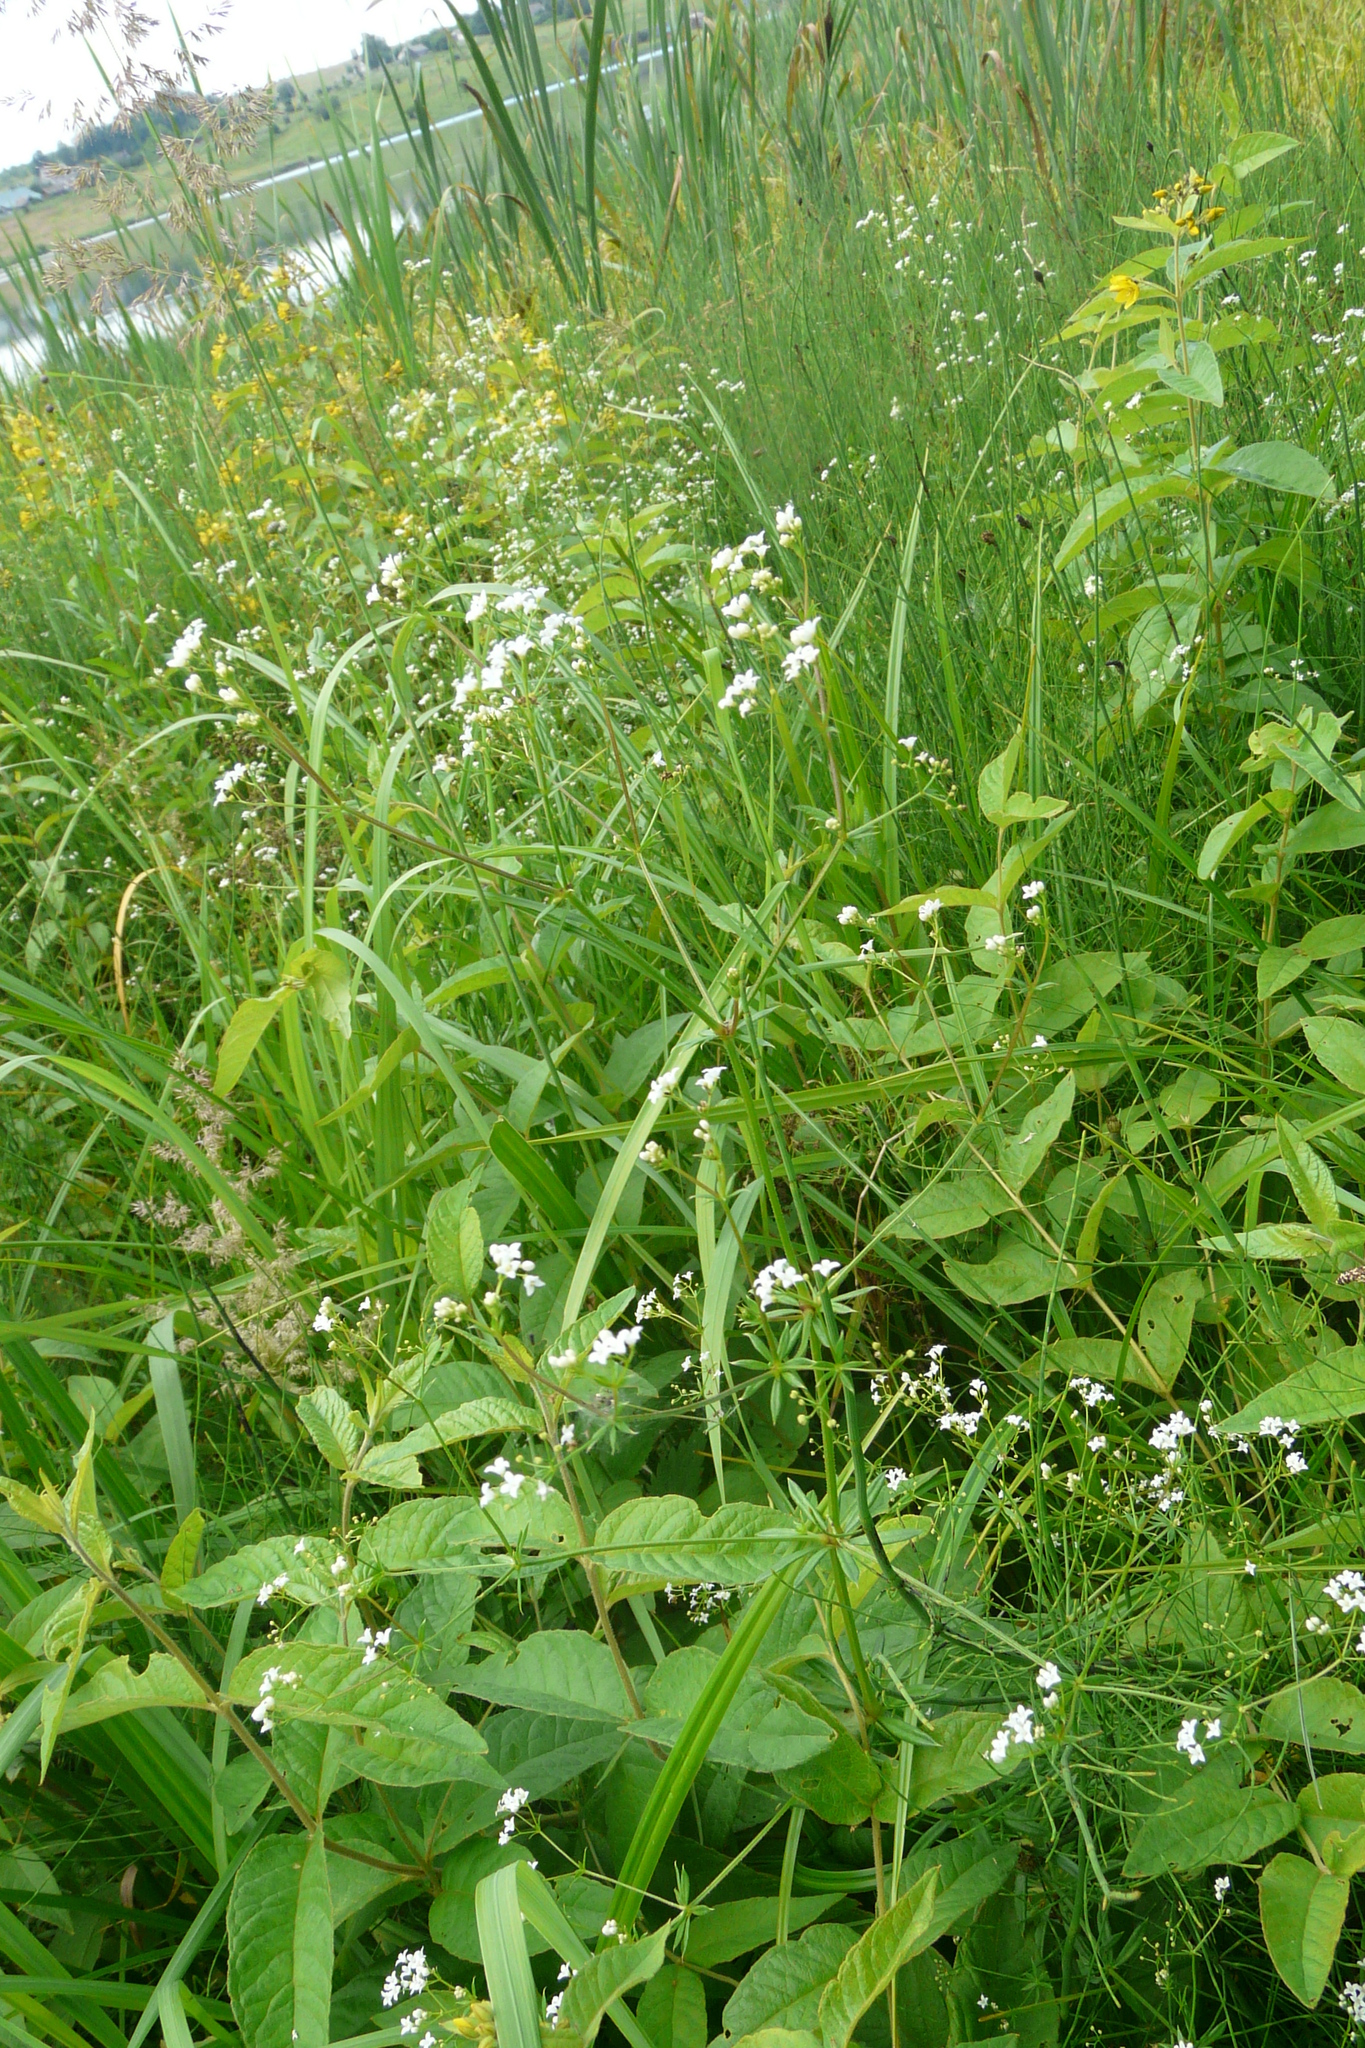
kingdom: Plantae
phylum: Tracheophyta
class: Magnoliopsida
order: Gentianales
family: Rubiaceae
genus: Galium
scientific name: Galium rivale
